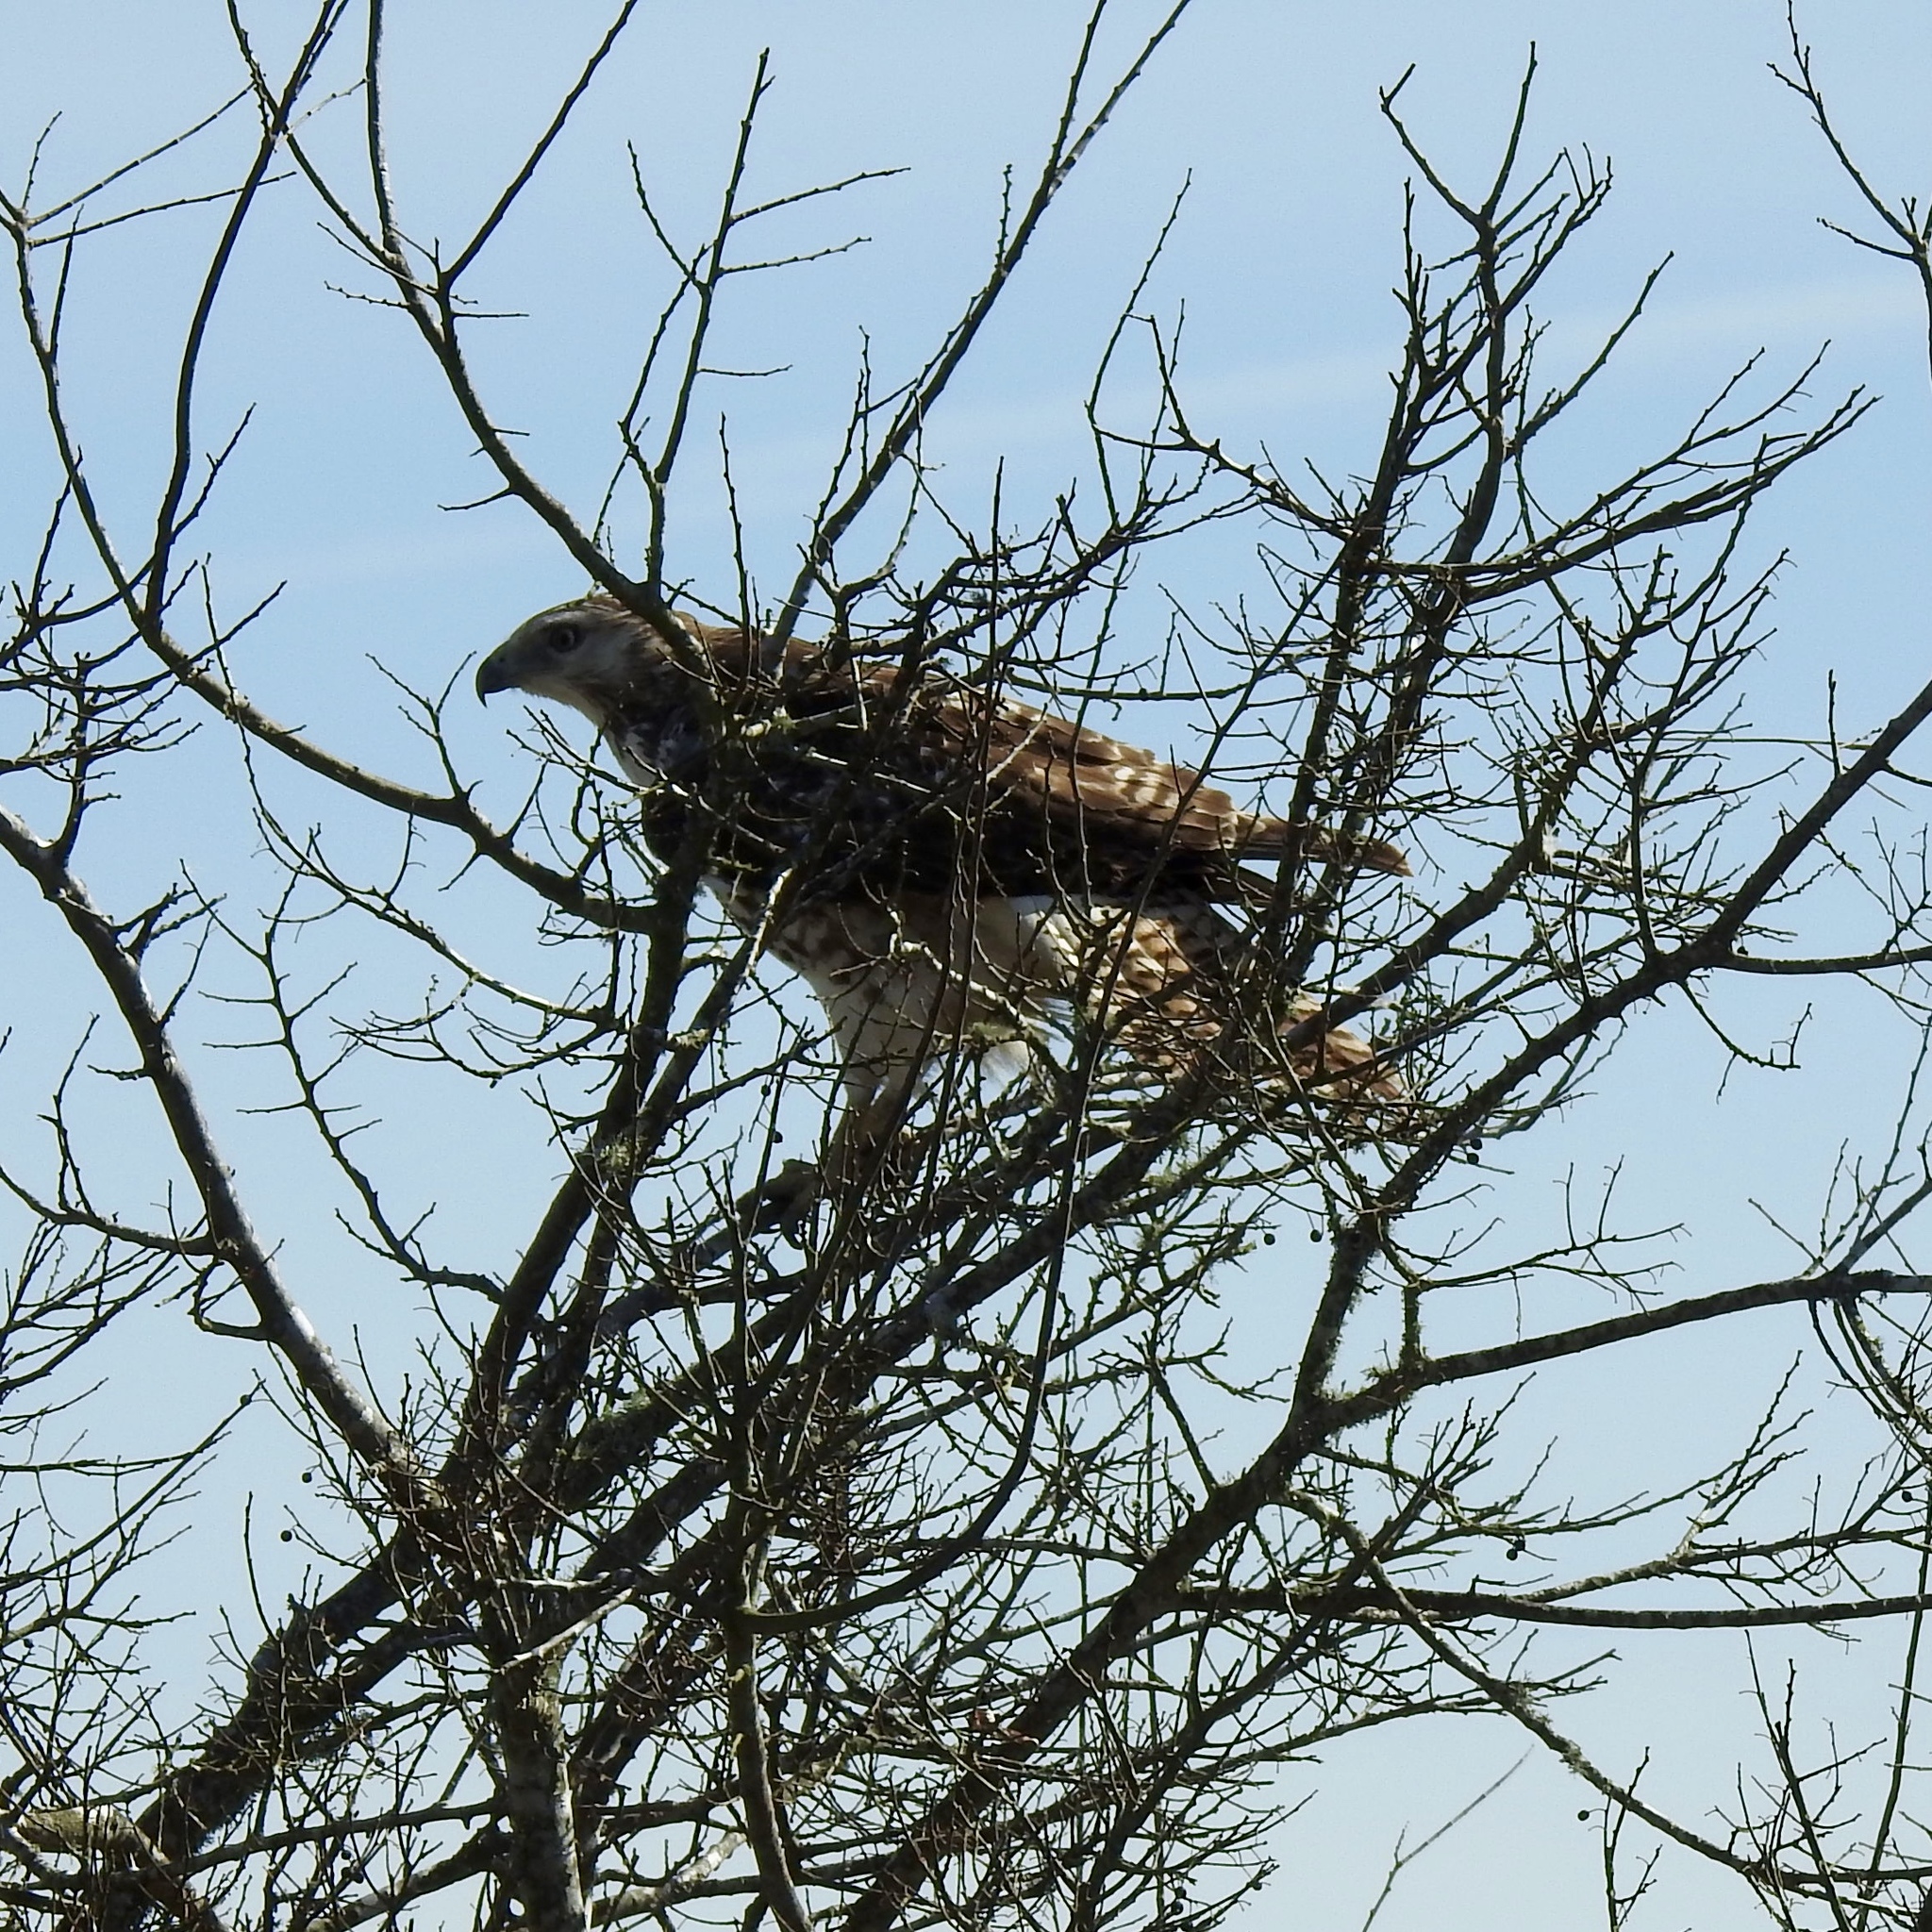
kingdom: Animalia
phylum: Chordata
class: Aves
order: Accipitriformes
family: Accipitridae
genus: Buteo
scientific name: Buteo jamaicensis
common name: Red-tailed hawk
